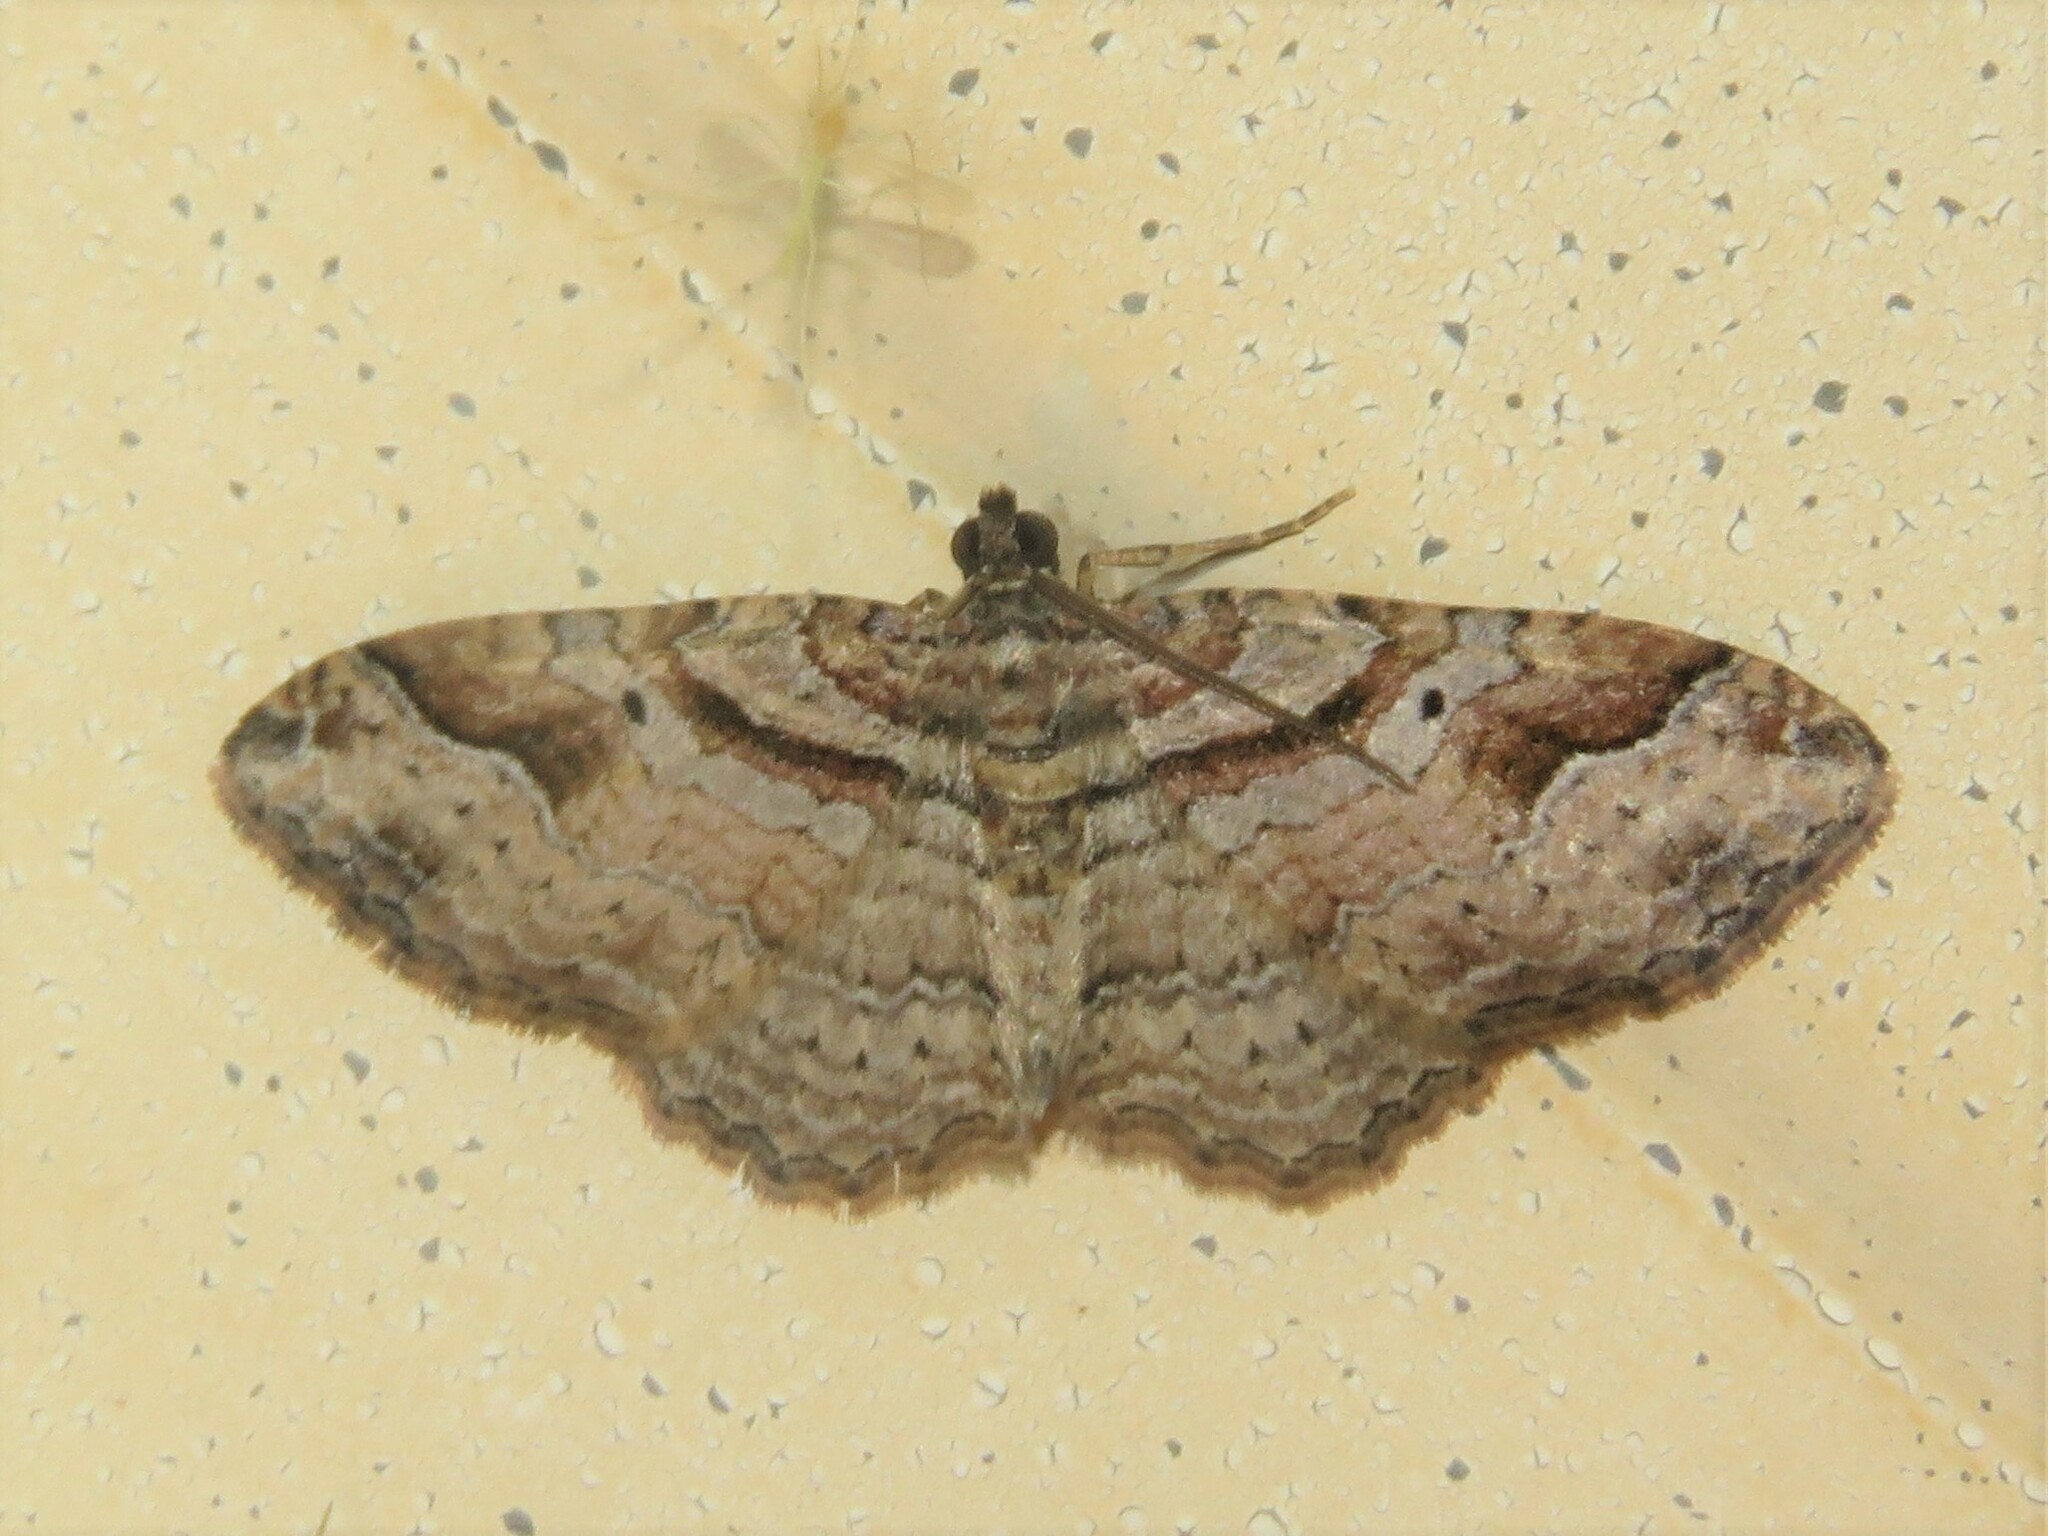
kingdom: Animalia
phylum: Arthropoda
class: Insecta
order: Lepidoptera
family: Geometridae
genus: Costaconvexa
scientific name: Costaconvexa centrostrigaria
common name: Bent-line carpet
